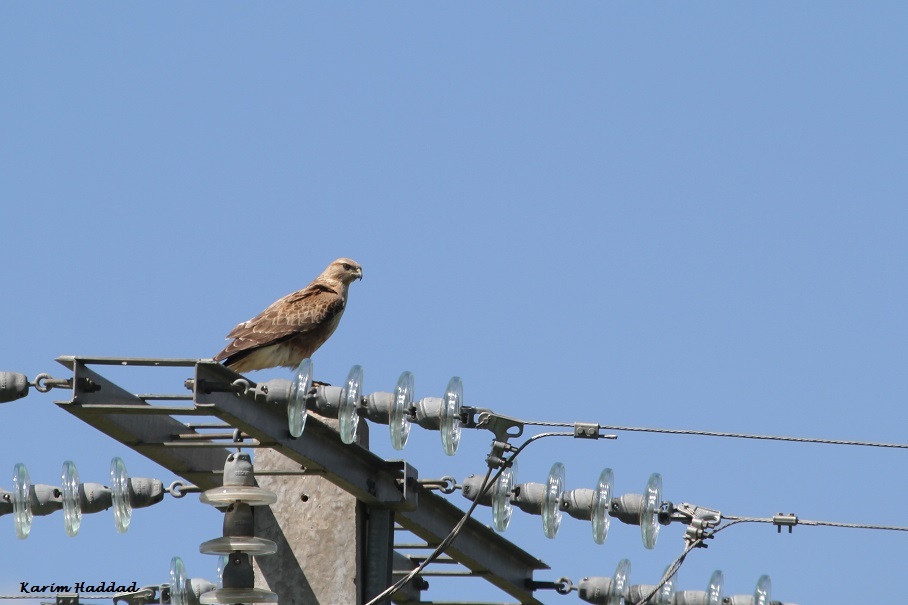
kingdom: Animalia
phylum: Chordata
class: Aves
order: Accipitriformes
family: Accipitridae
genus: Buteo
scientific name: Buteo rufinus
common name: Long-legged buzzard
